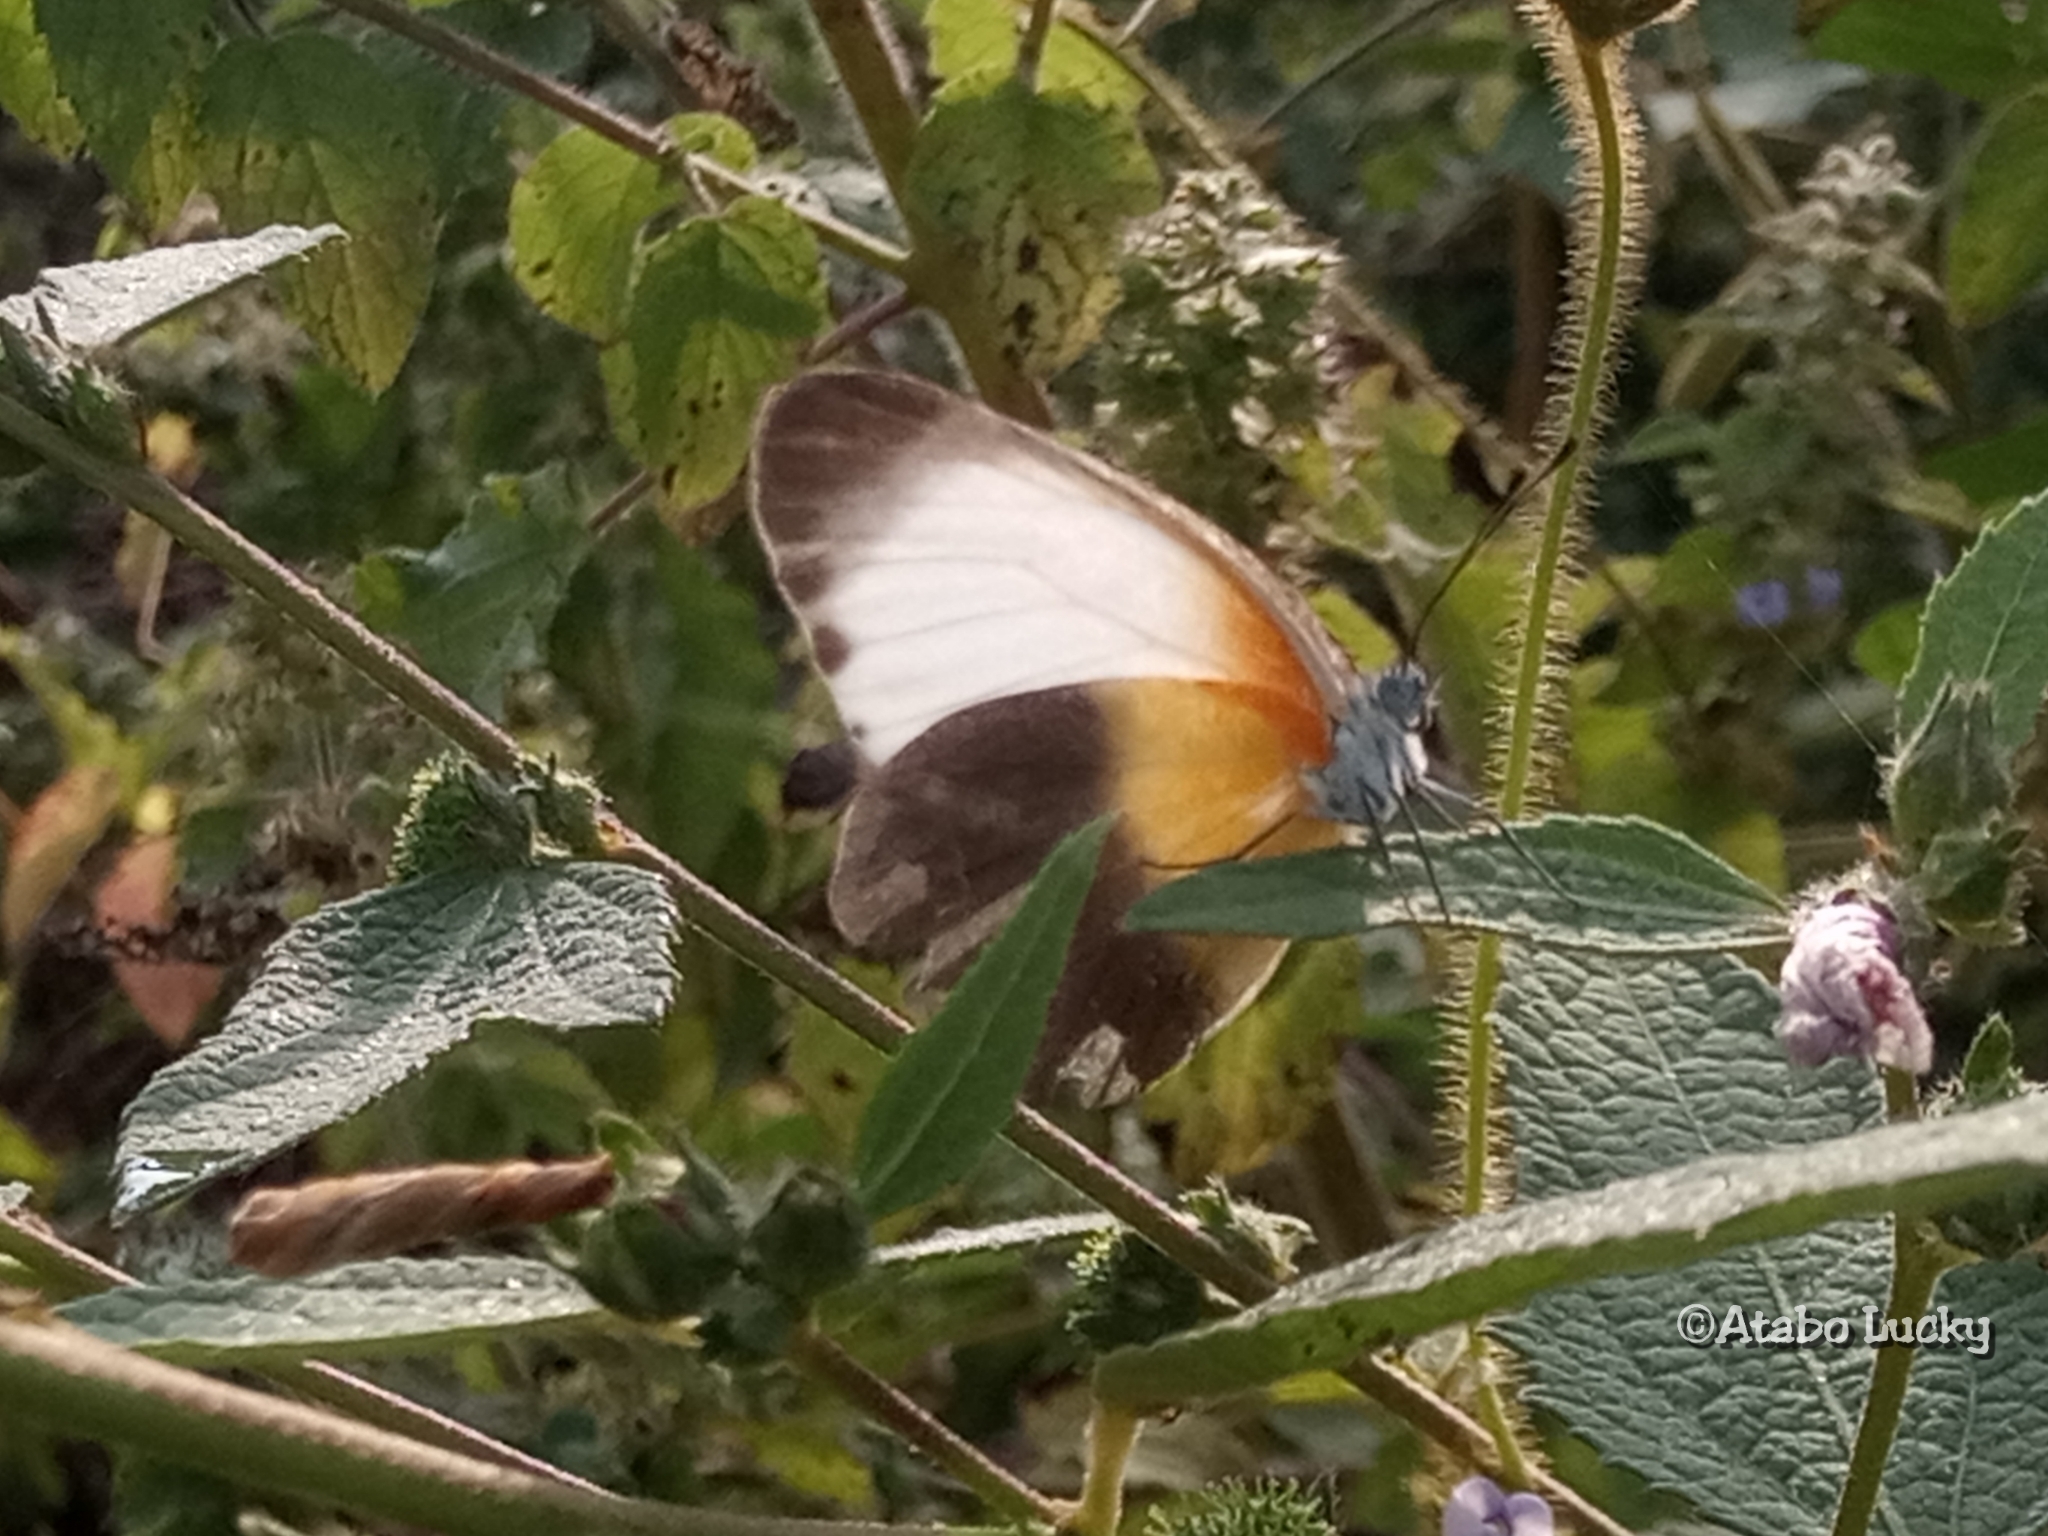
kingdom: Animalia
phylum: Arthropoda
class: Insecta
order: Lepidoptera
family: Pieridae
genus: Mylothris
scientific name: Mylothris chloris
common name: Western dotted border
